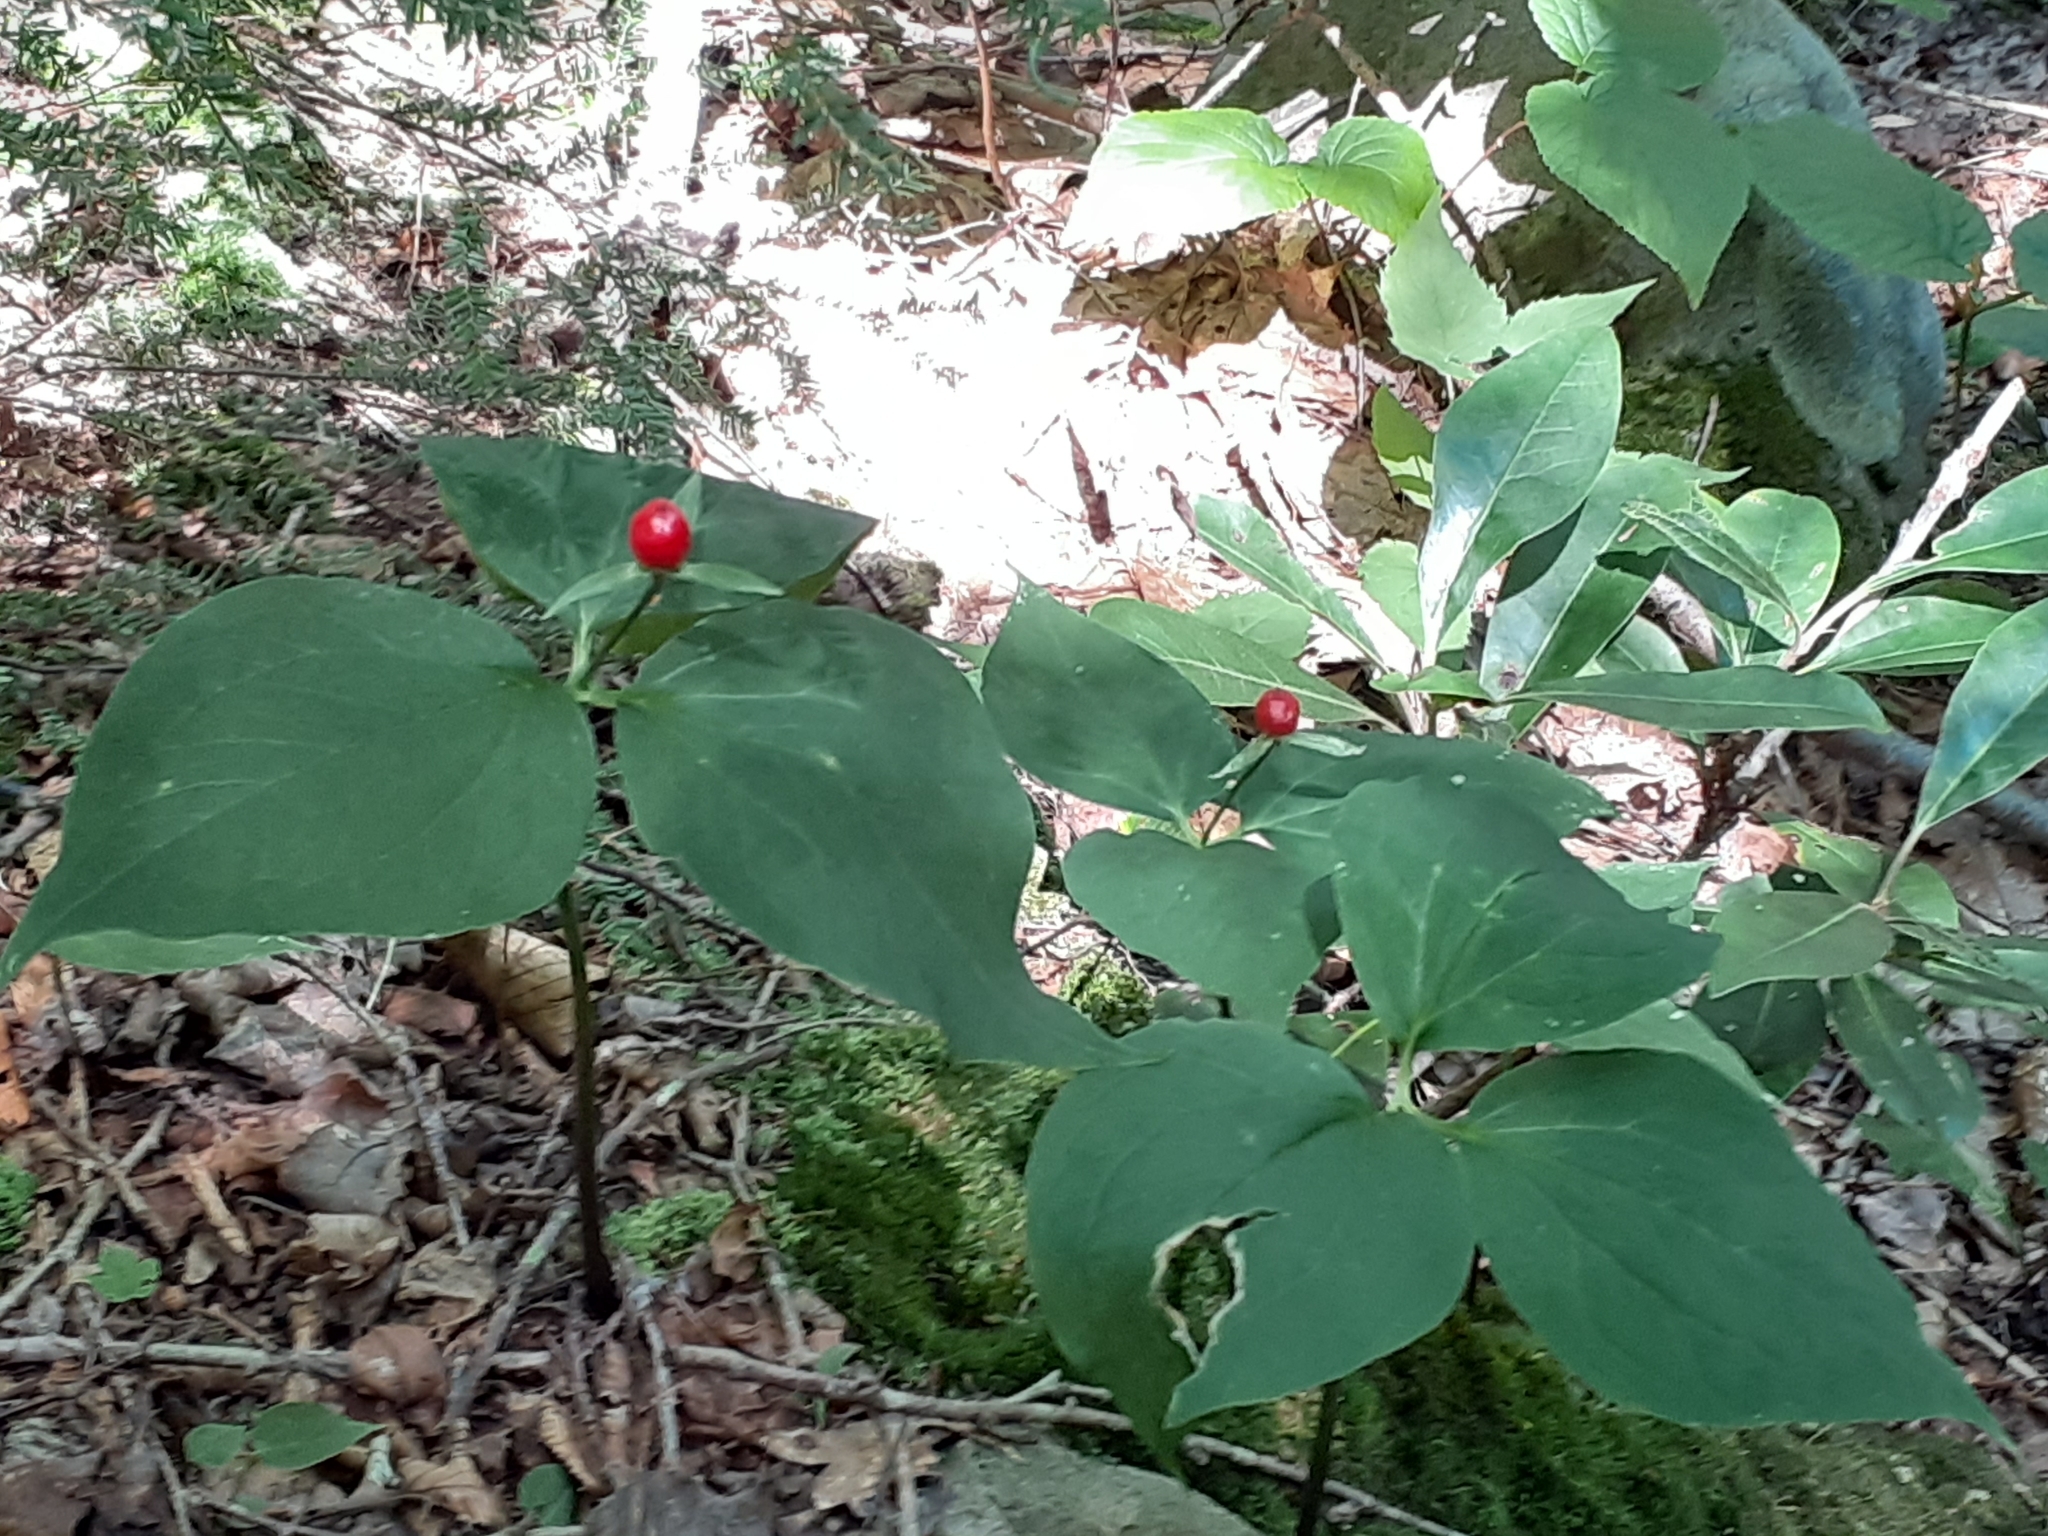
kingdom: Plantae
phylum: Tracheophyta
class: Liliopsida
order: Liliales
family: Melanthiaceae
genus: Trillium
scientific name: Trillium undulatum
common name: Paint trillium
